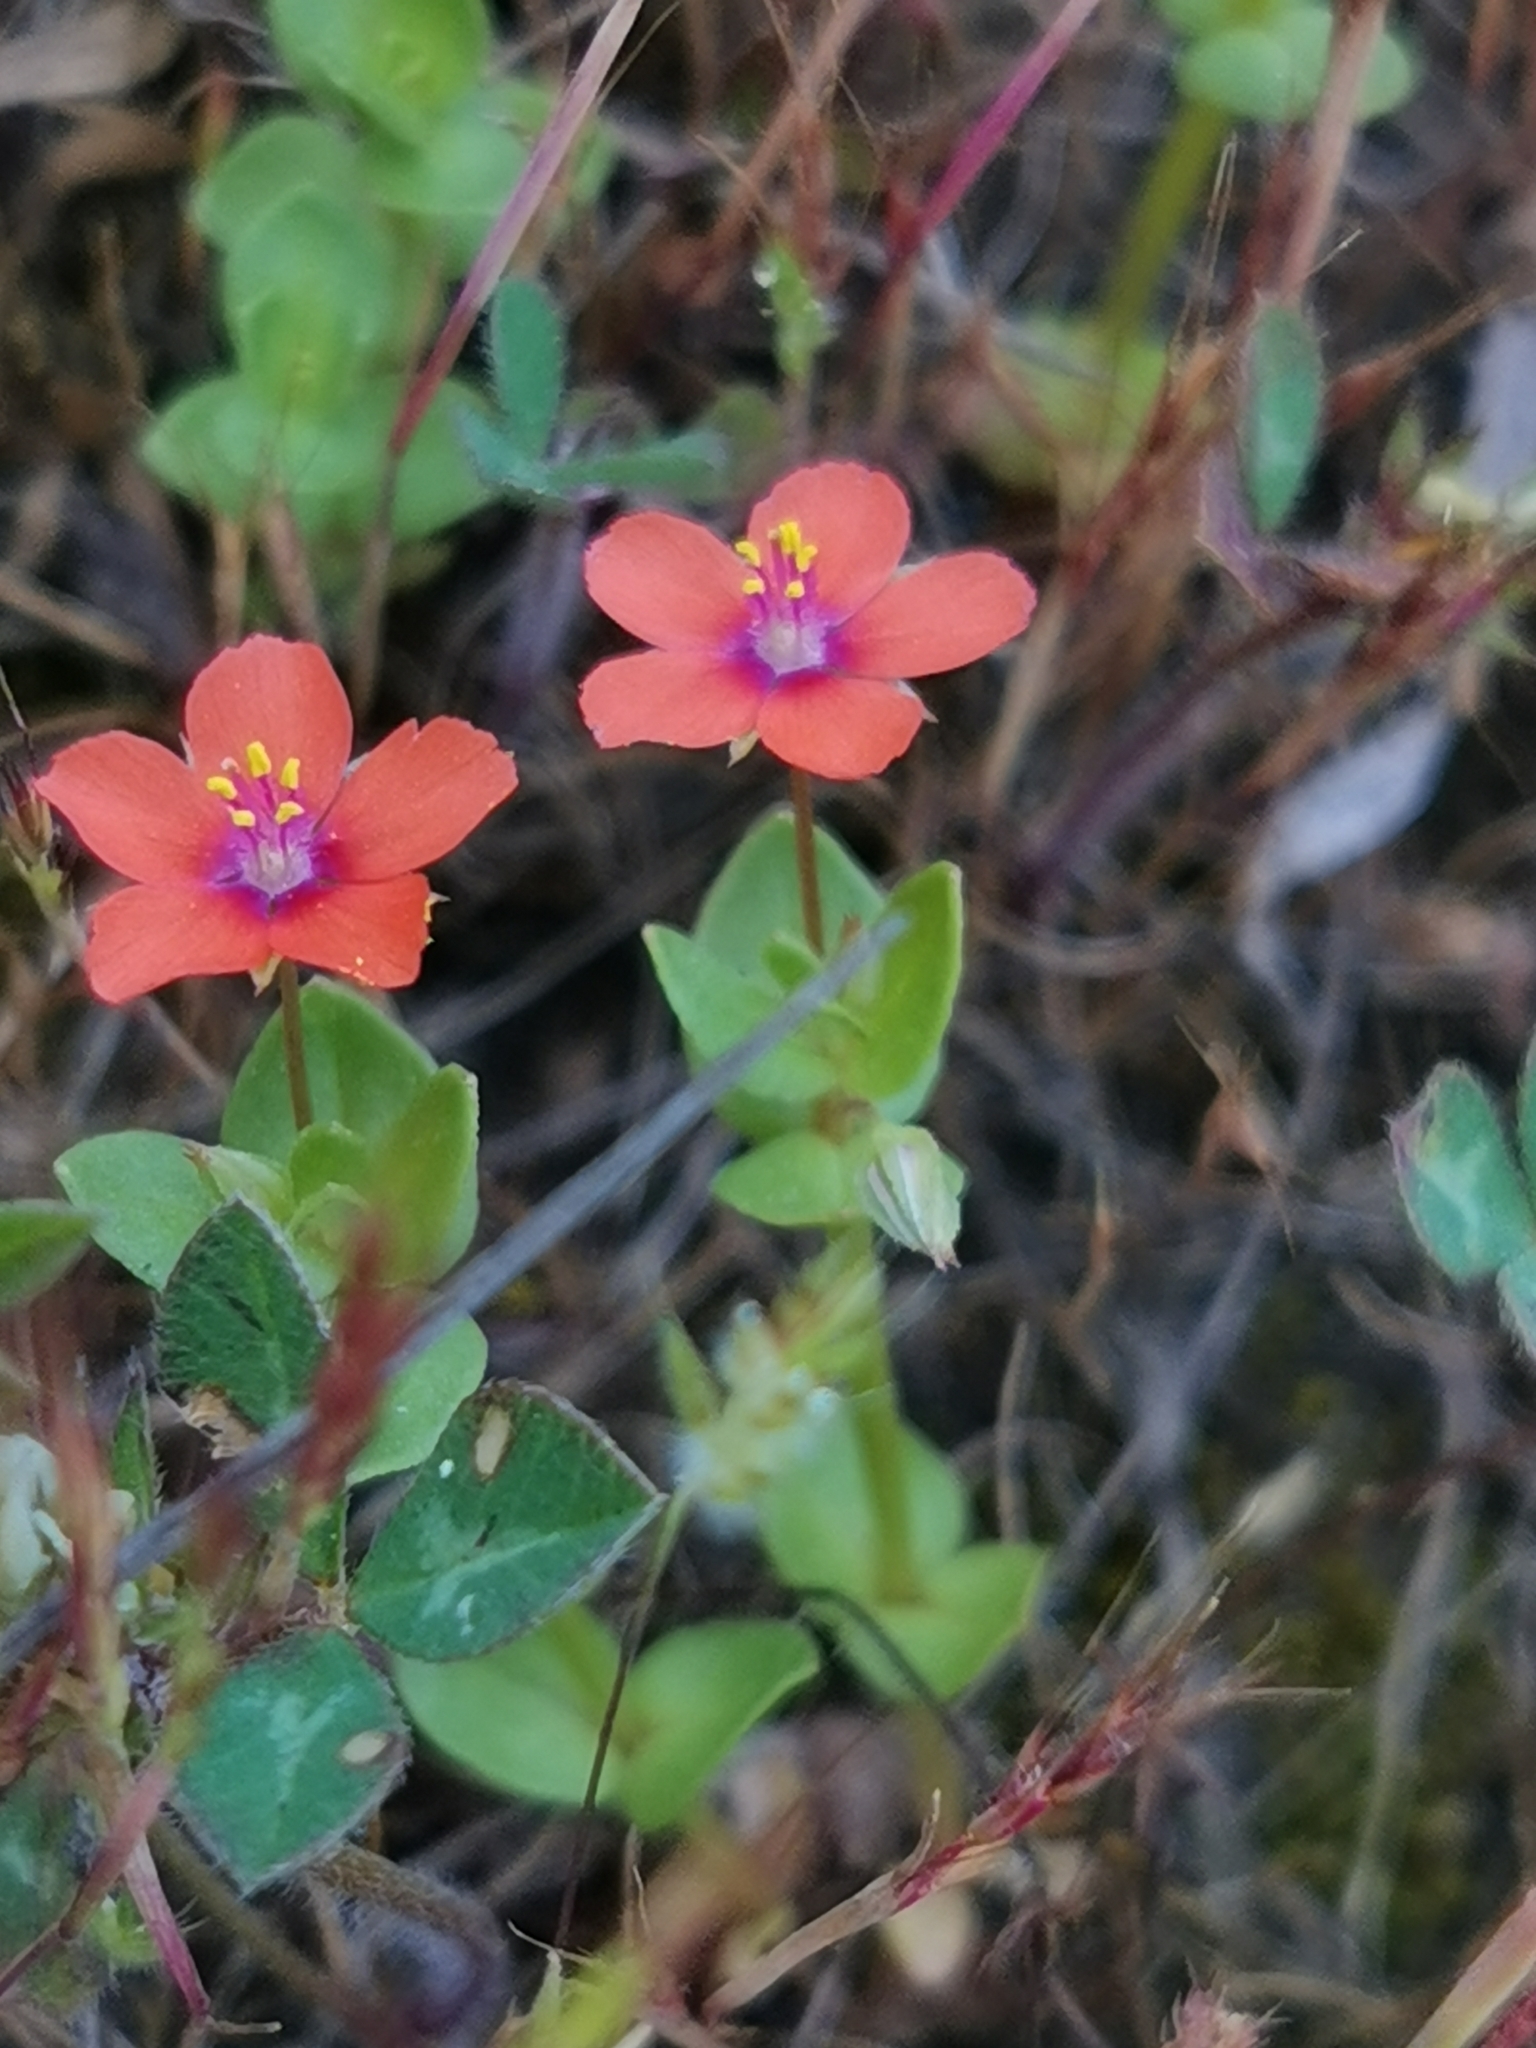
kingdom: Plantae
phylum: Tracheophyta
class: Magnoliopsida
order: Ericales
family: Primulaceae
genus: Lysimachia
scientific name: Lysimachia arvensis
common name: Scarlet pimpernel
